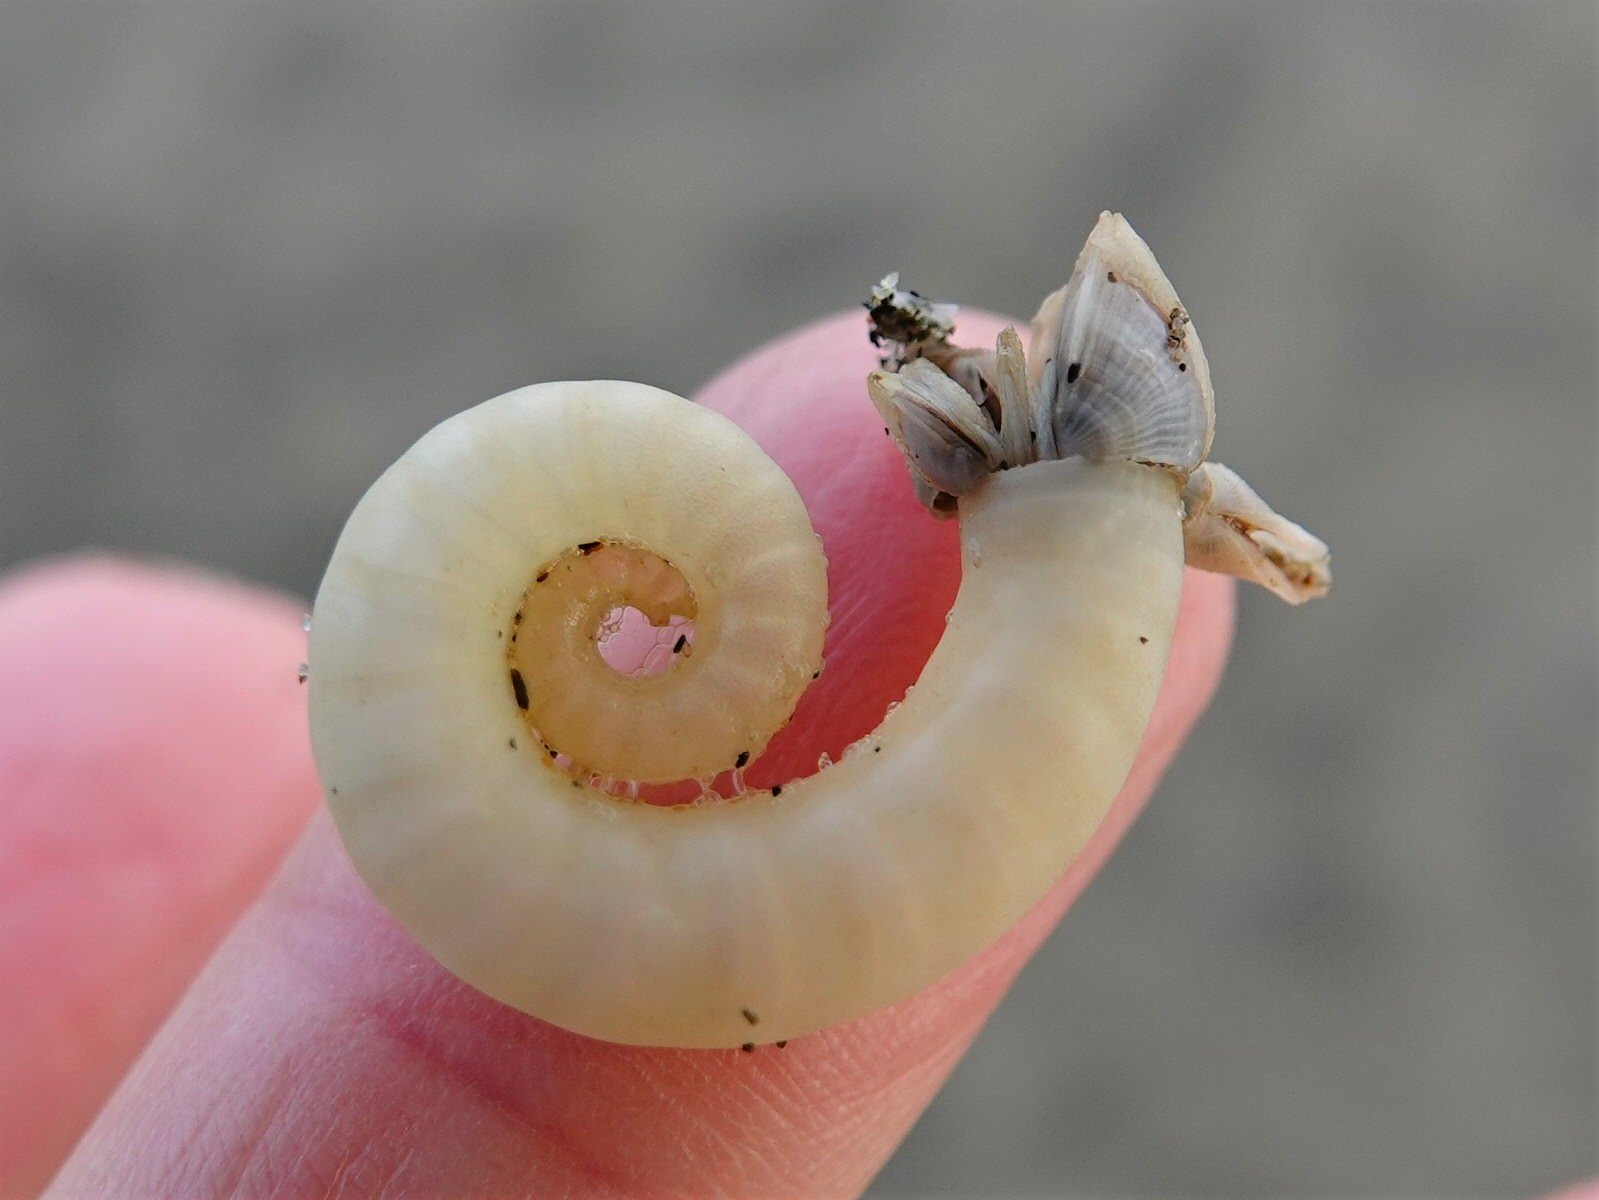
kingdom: Animalia
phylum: Mollusca
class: Cephalopoda
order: Spirulida
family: Spirulidae
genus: Spirula
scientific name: Spirula spirula
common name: Ram's horn squid
